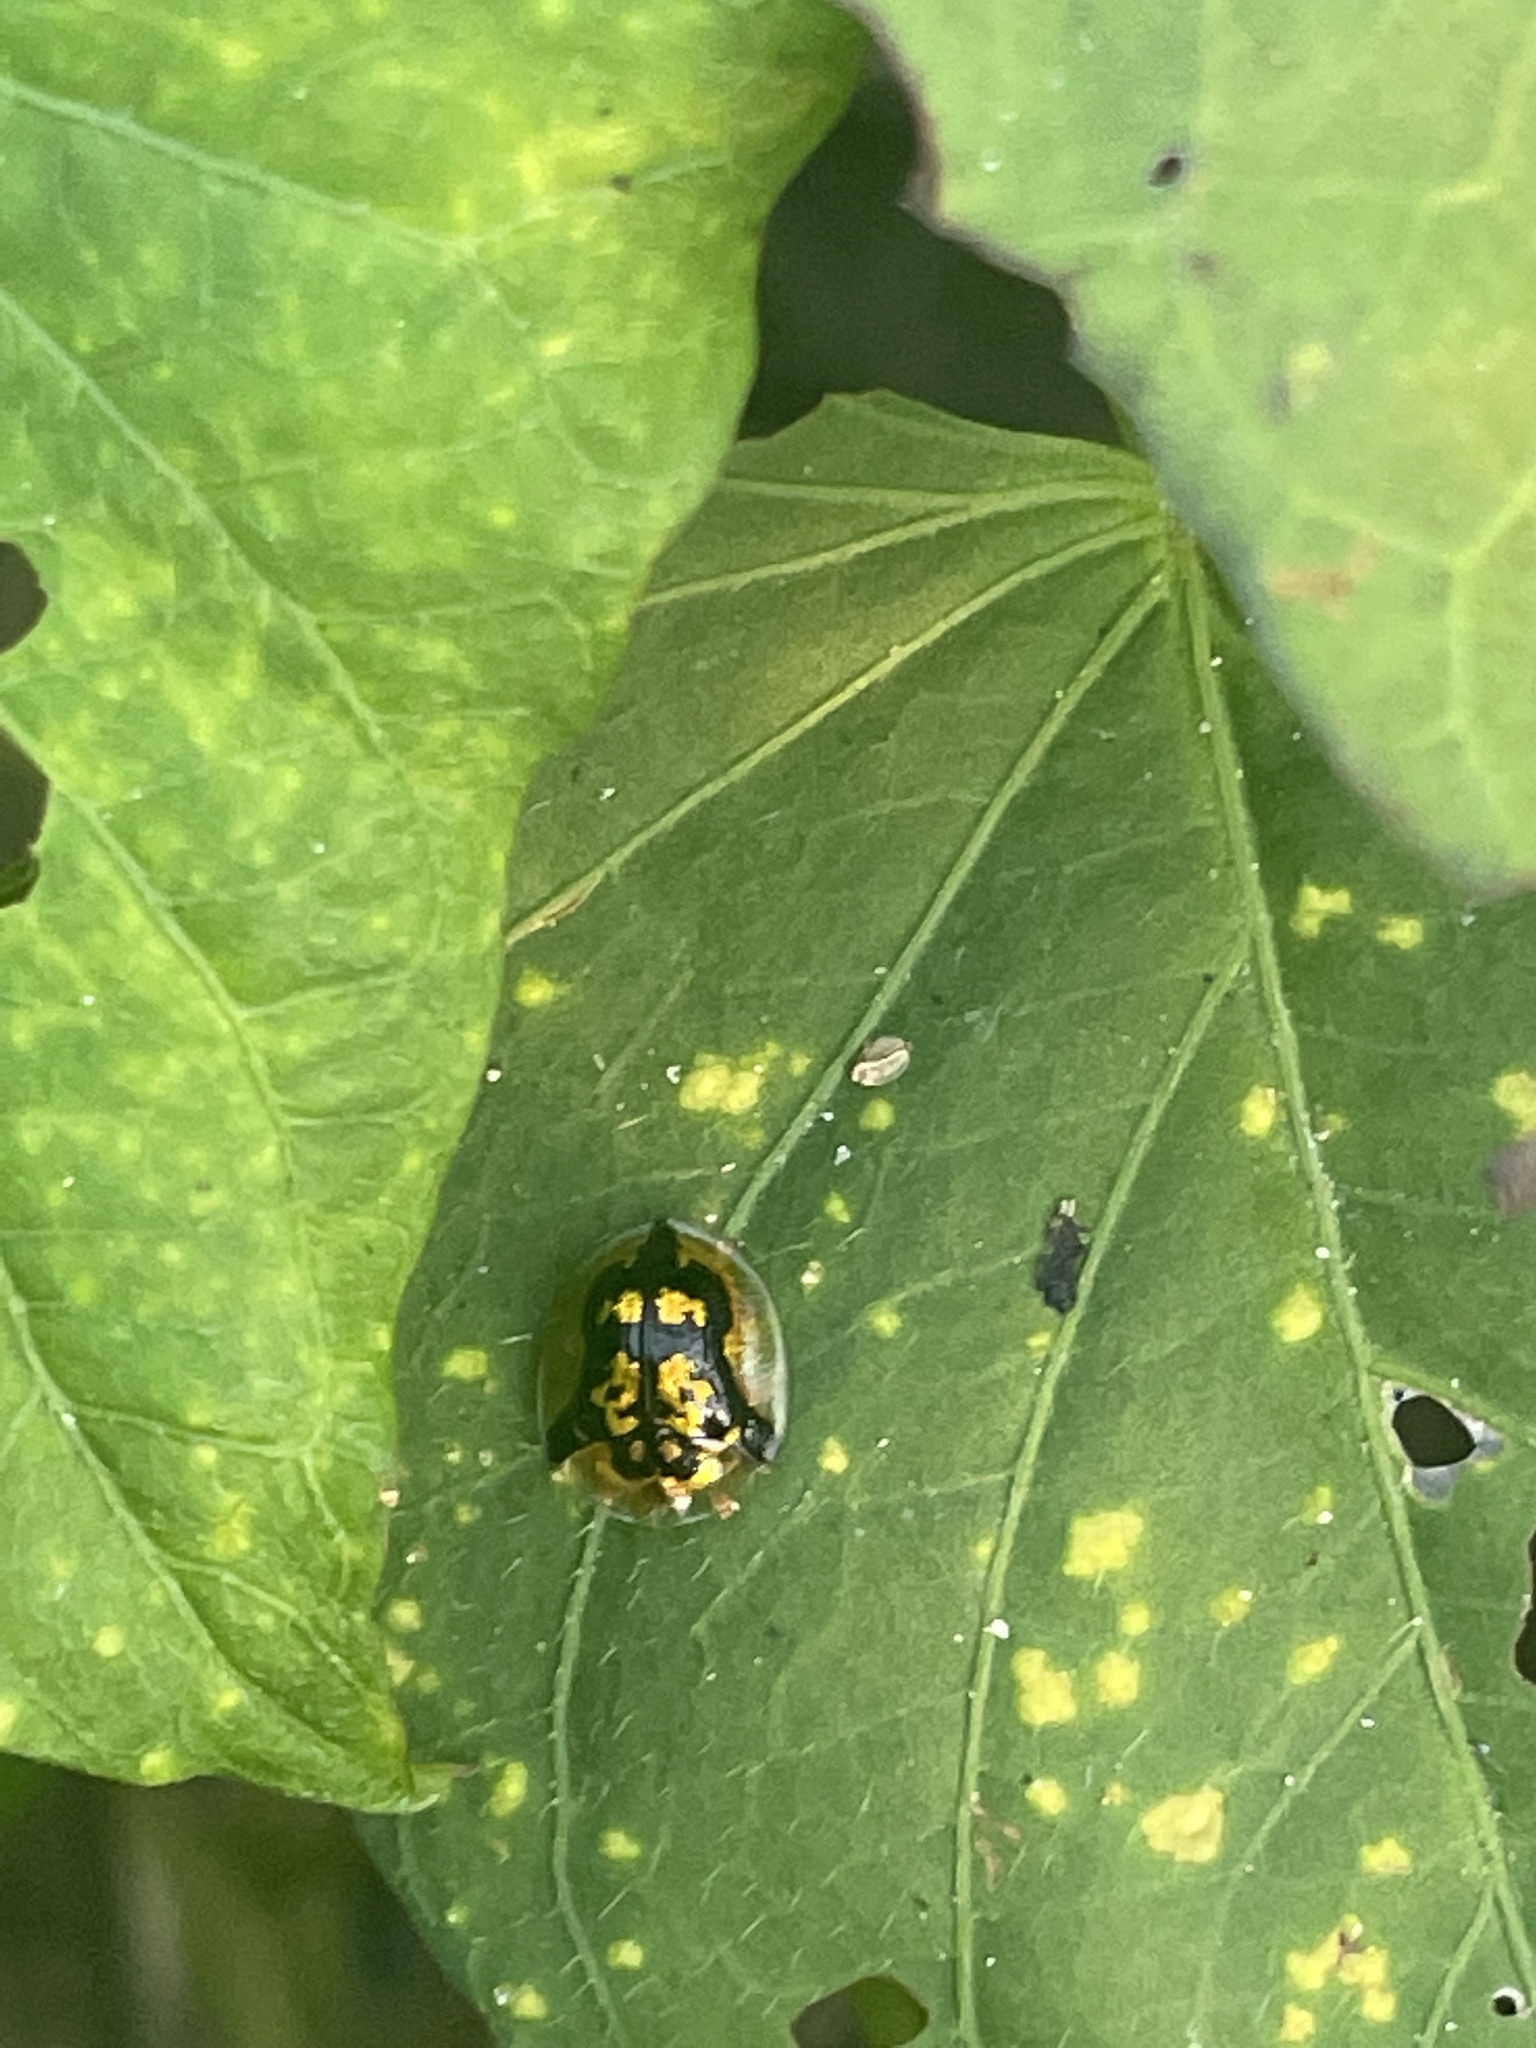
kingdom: Animalia
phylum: Arthropoda
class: Insecta
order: Coleoptera
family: Chrysomelidae
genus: Deloyala
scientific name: Deloyala guttata
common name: Mottled tortoise beetle
